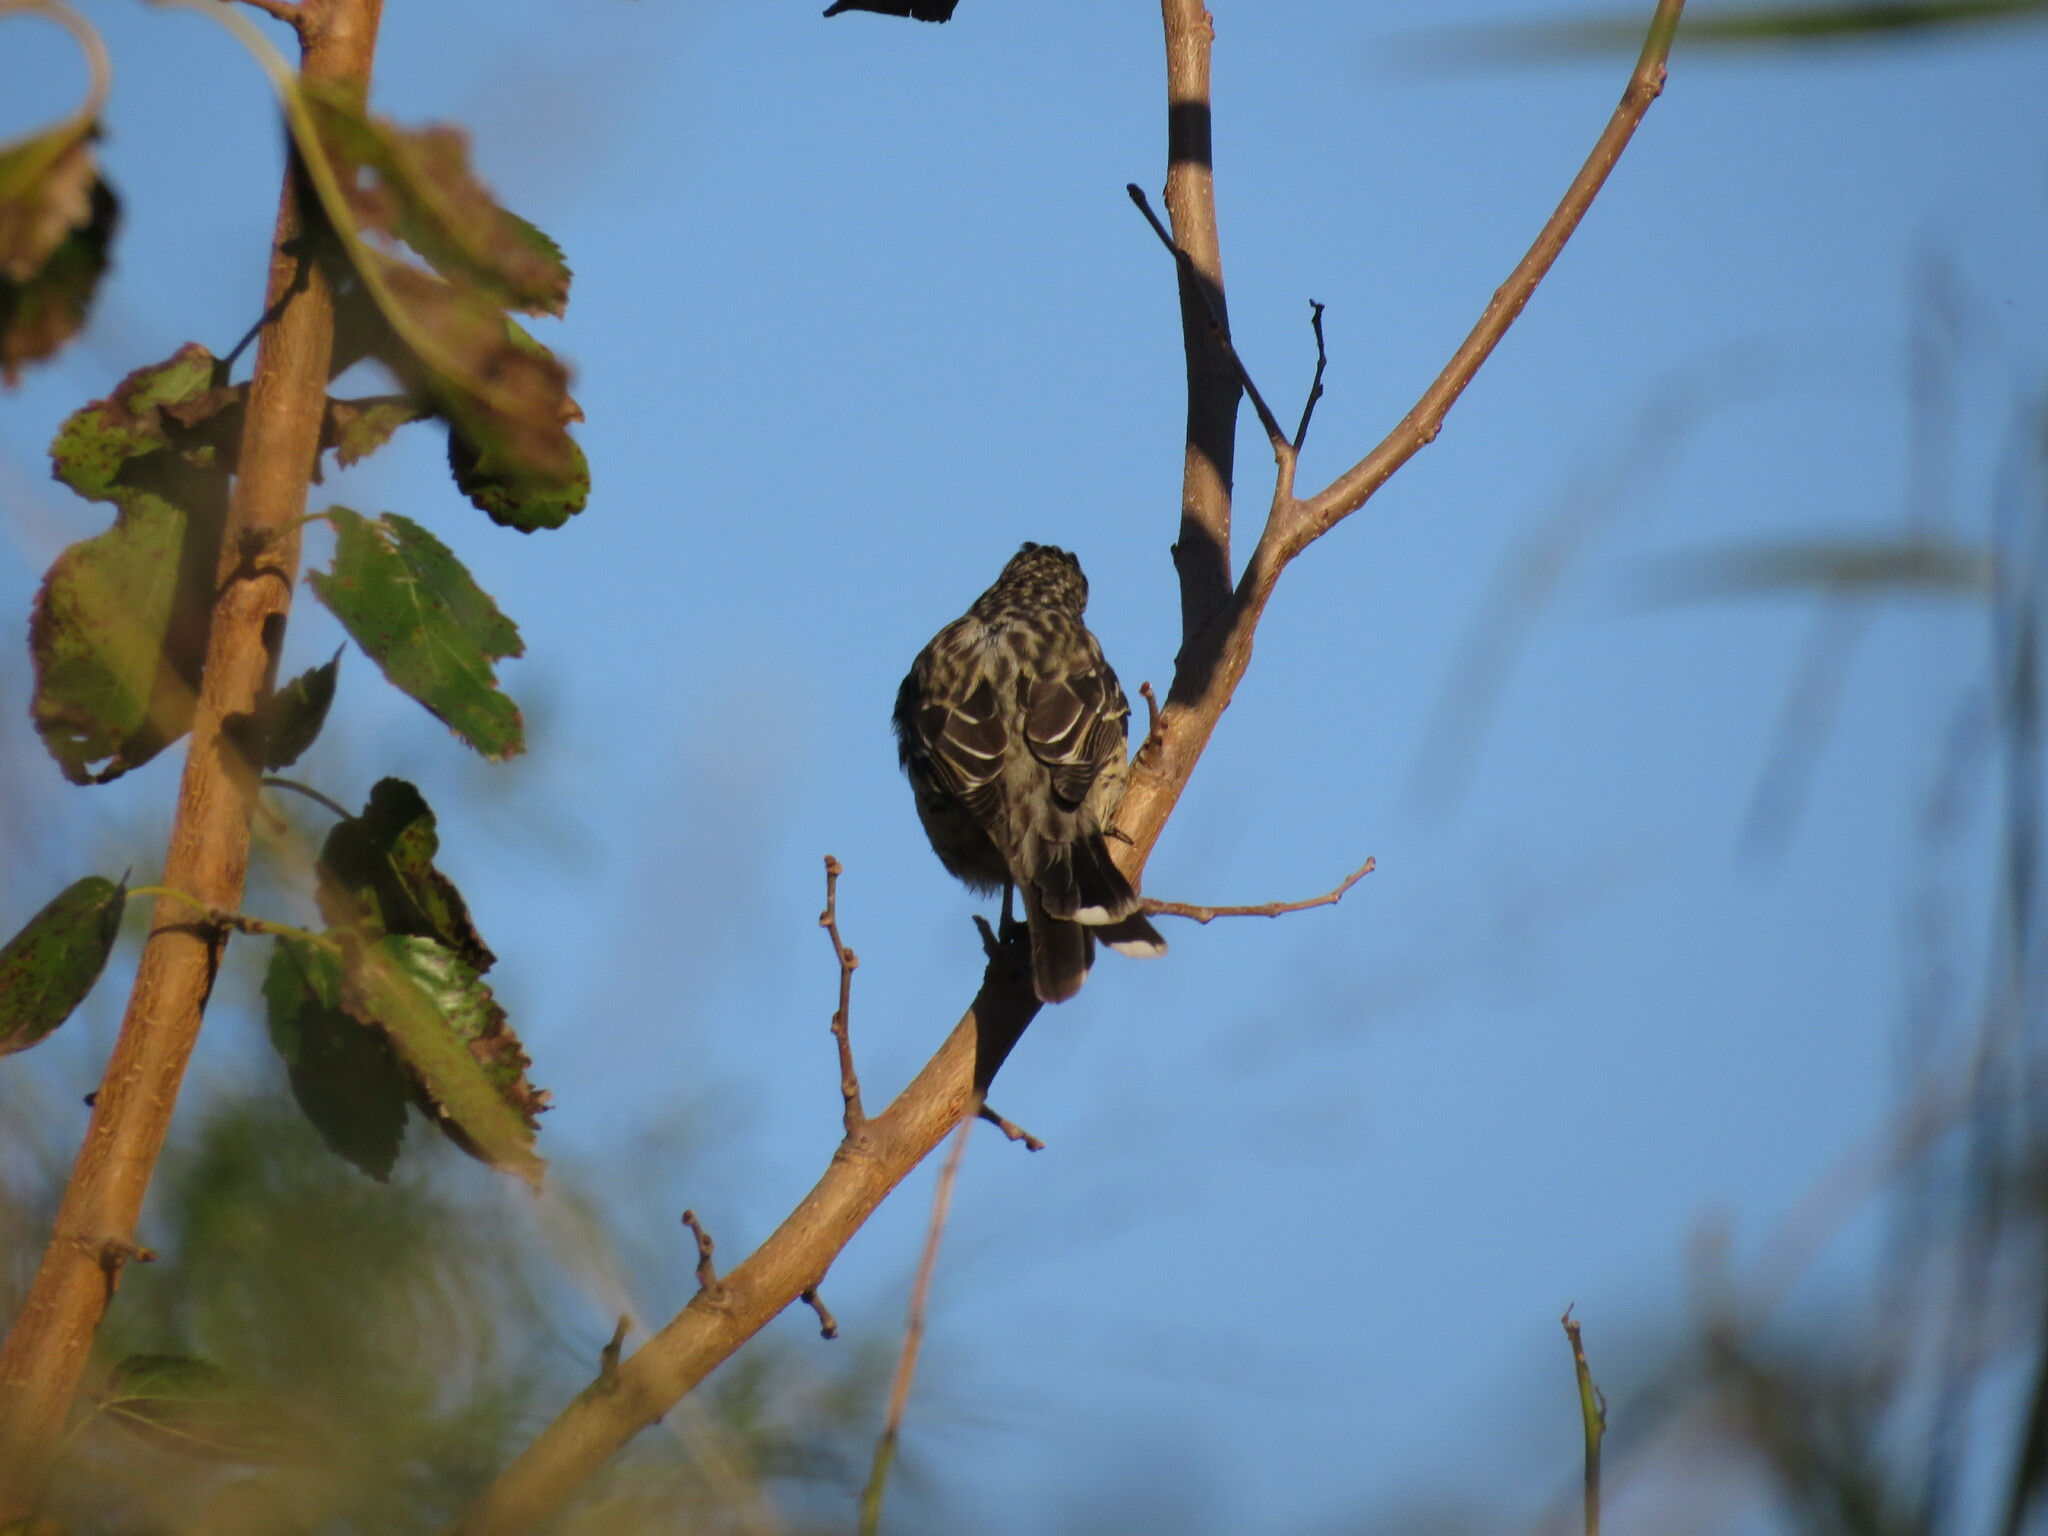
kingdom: Animalia
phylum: Chordata
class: Aves
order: Passeriformes
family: Cotingidae
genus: Phytotoma
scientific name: Phytotoma rutila
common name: White-tipped plantcutter
